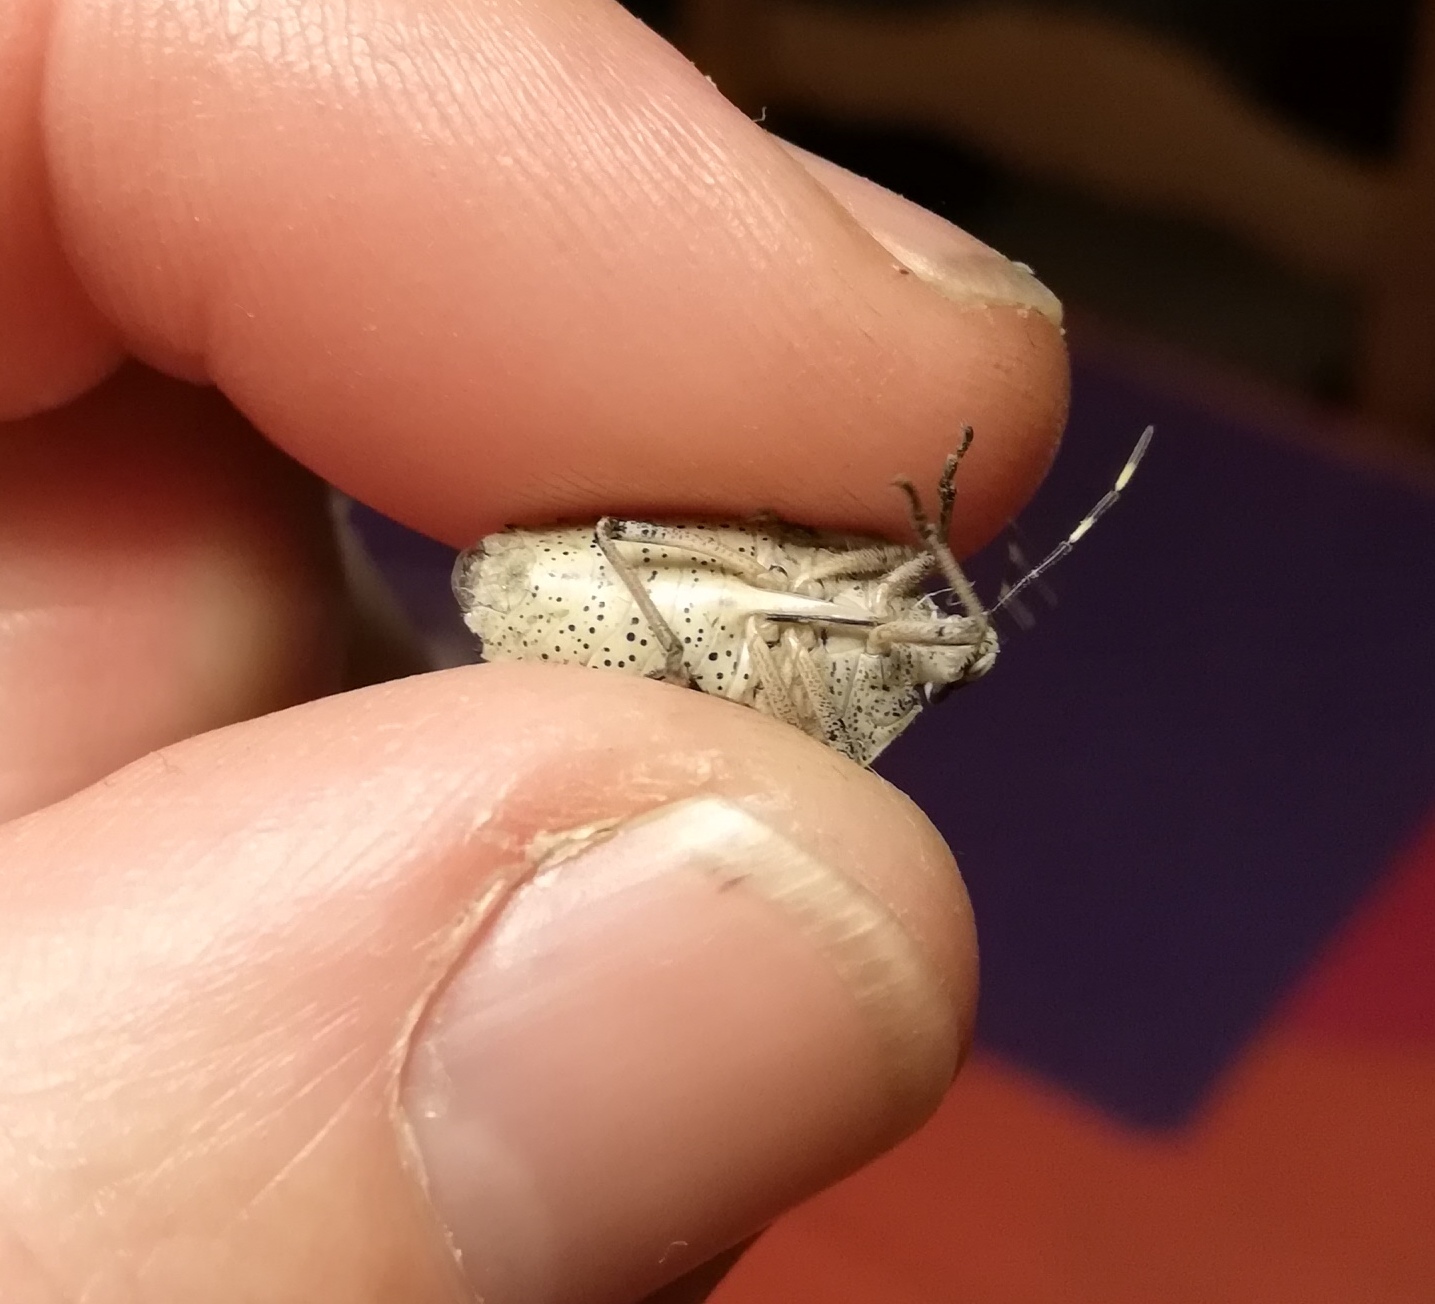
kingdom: Animalia
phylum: Arthropoda
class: Insecta
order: Hemiptera
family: Pentatomidae
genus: Rhaphigaster
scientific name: Rhaphigaster nebulosa
